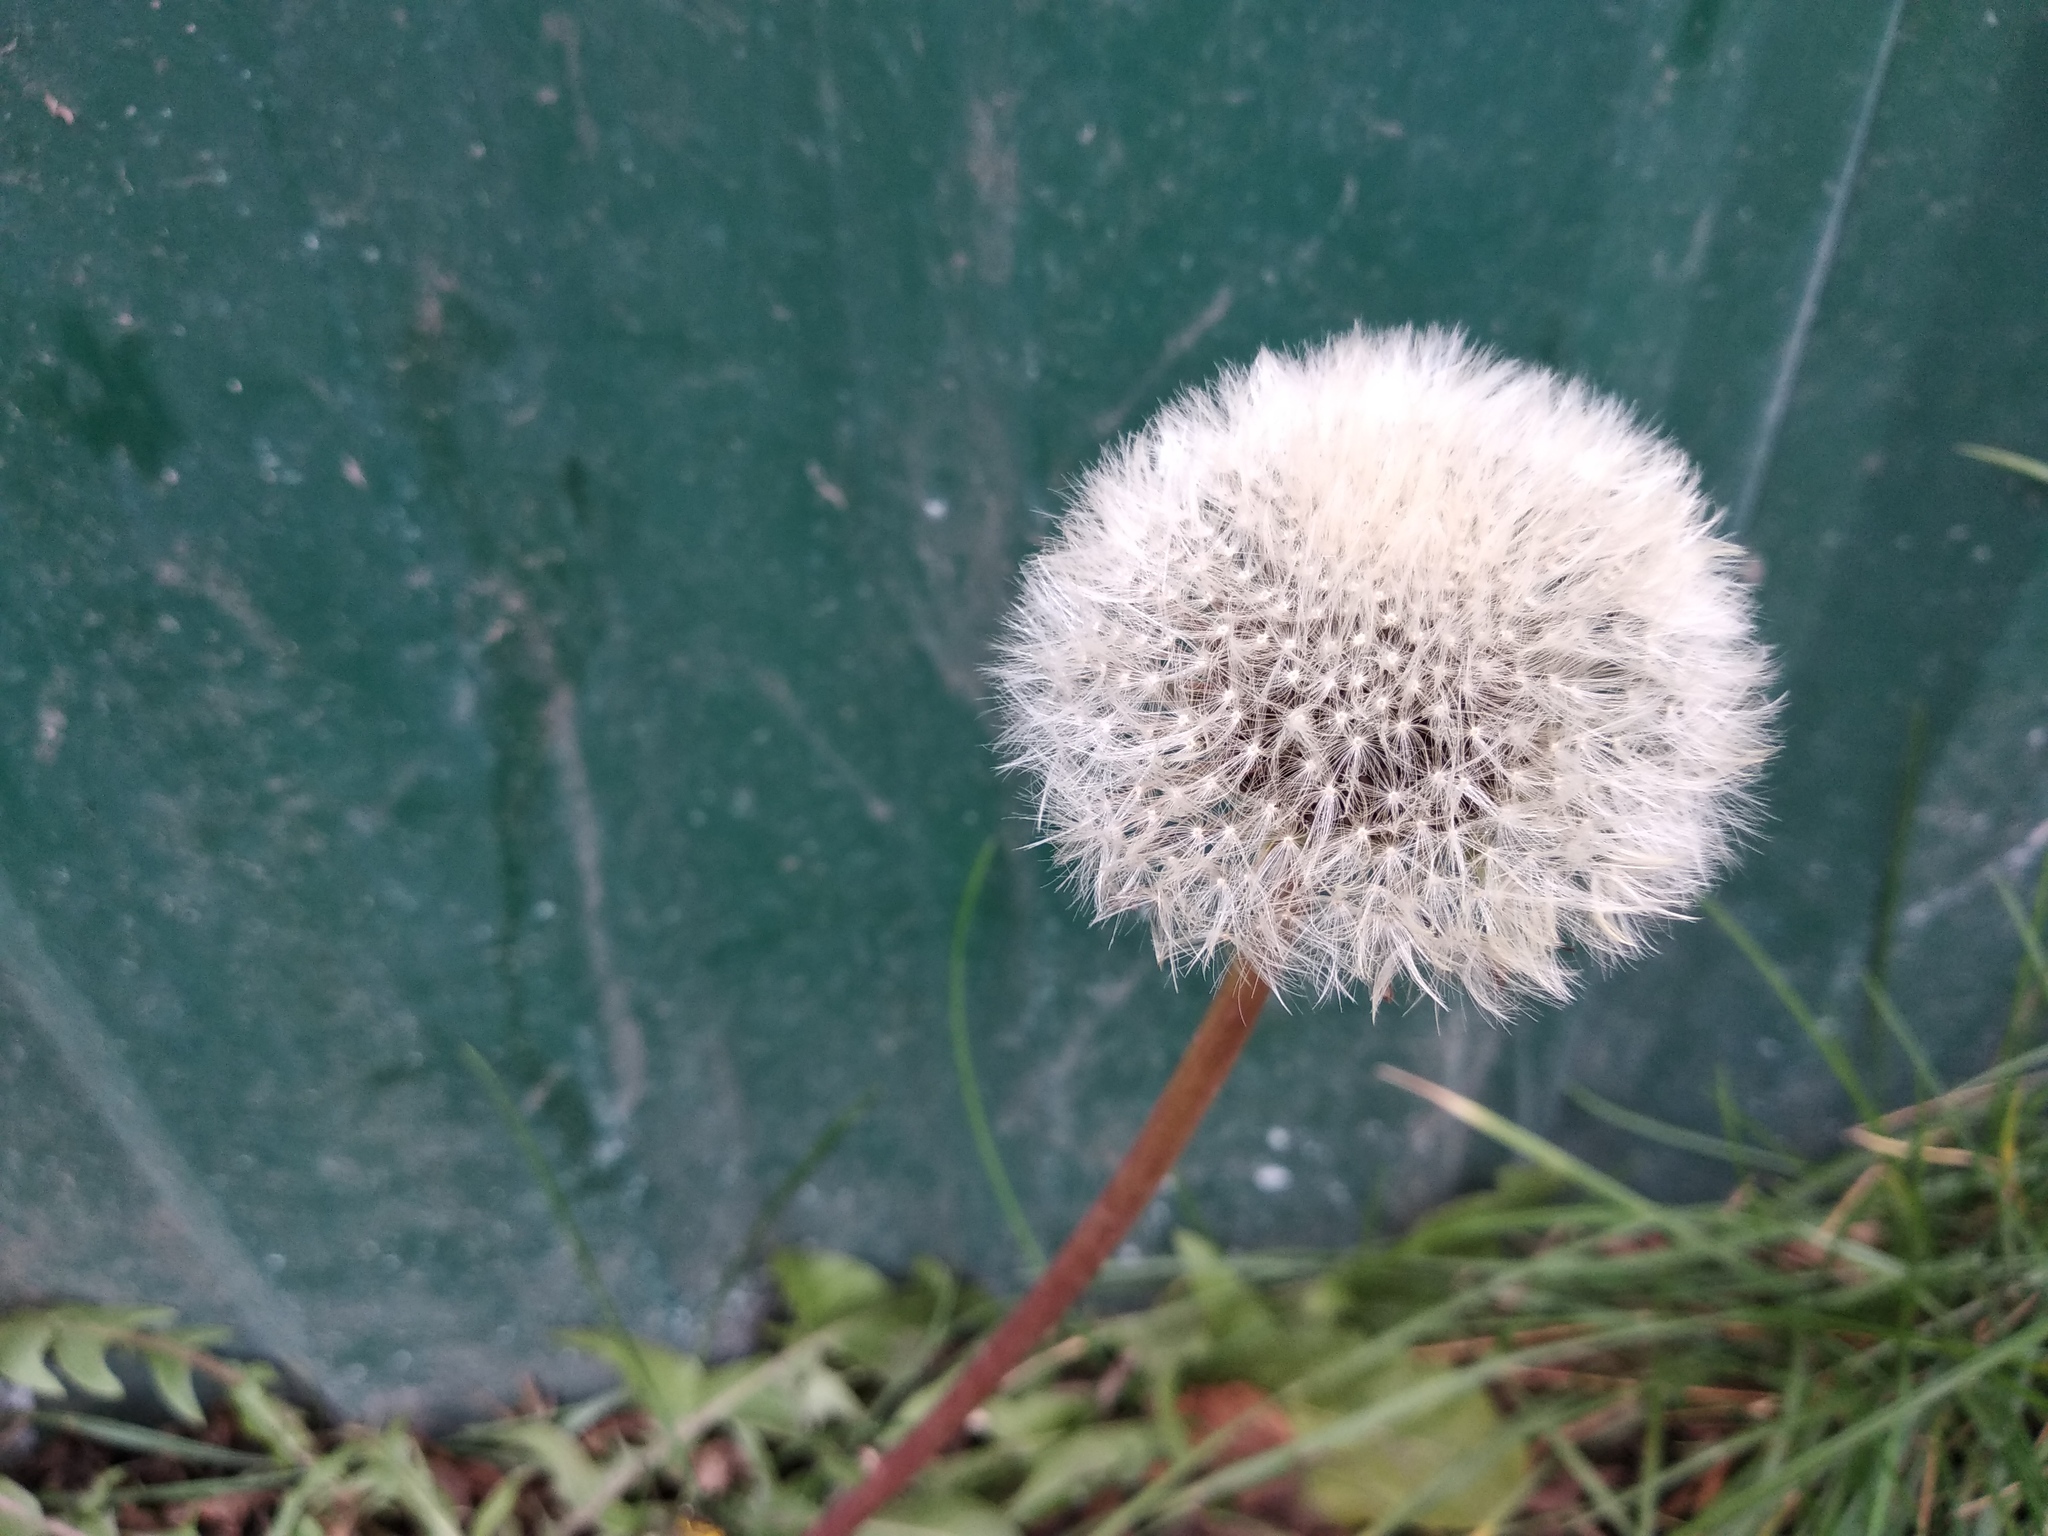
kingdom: Plantae
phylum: Tracheophyta
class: Magnoliopsida
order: Asterales
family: Asteraceae
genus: Taraxacum
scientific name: Taraxacum officinale
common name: Common dandelion
